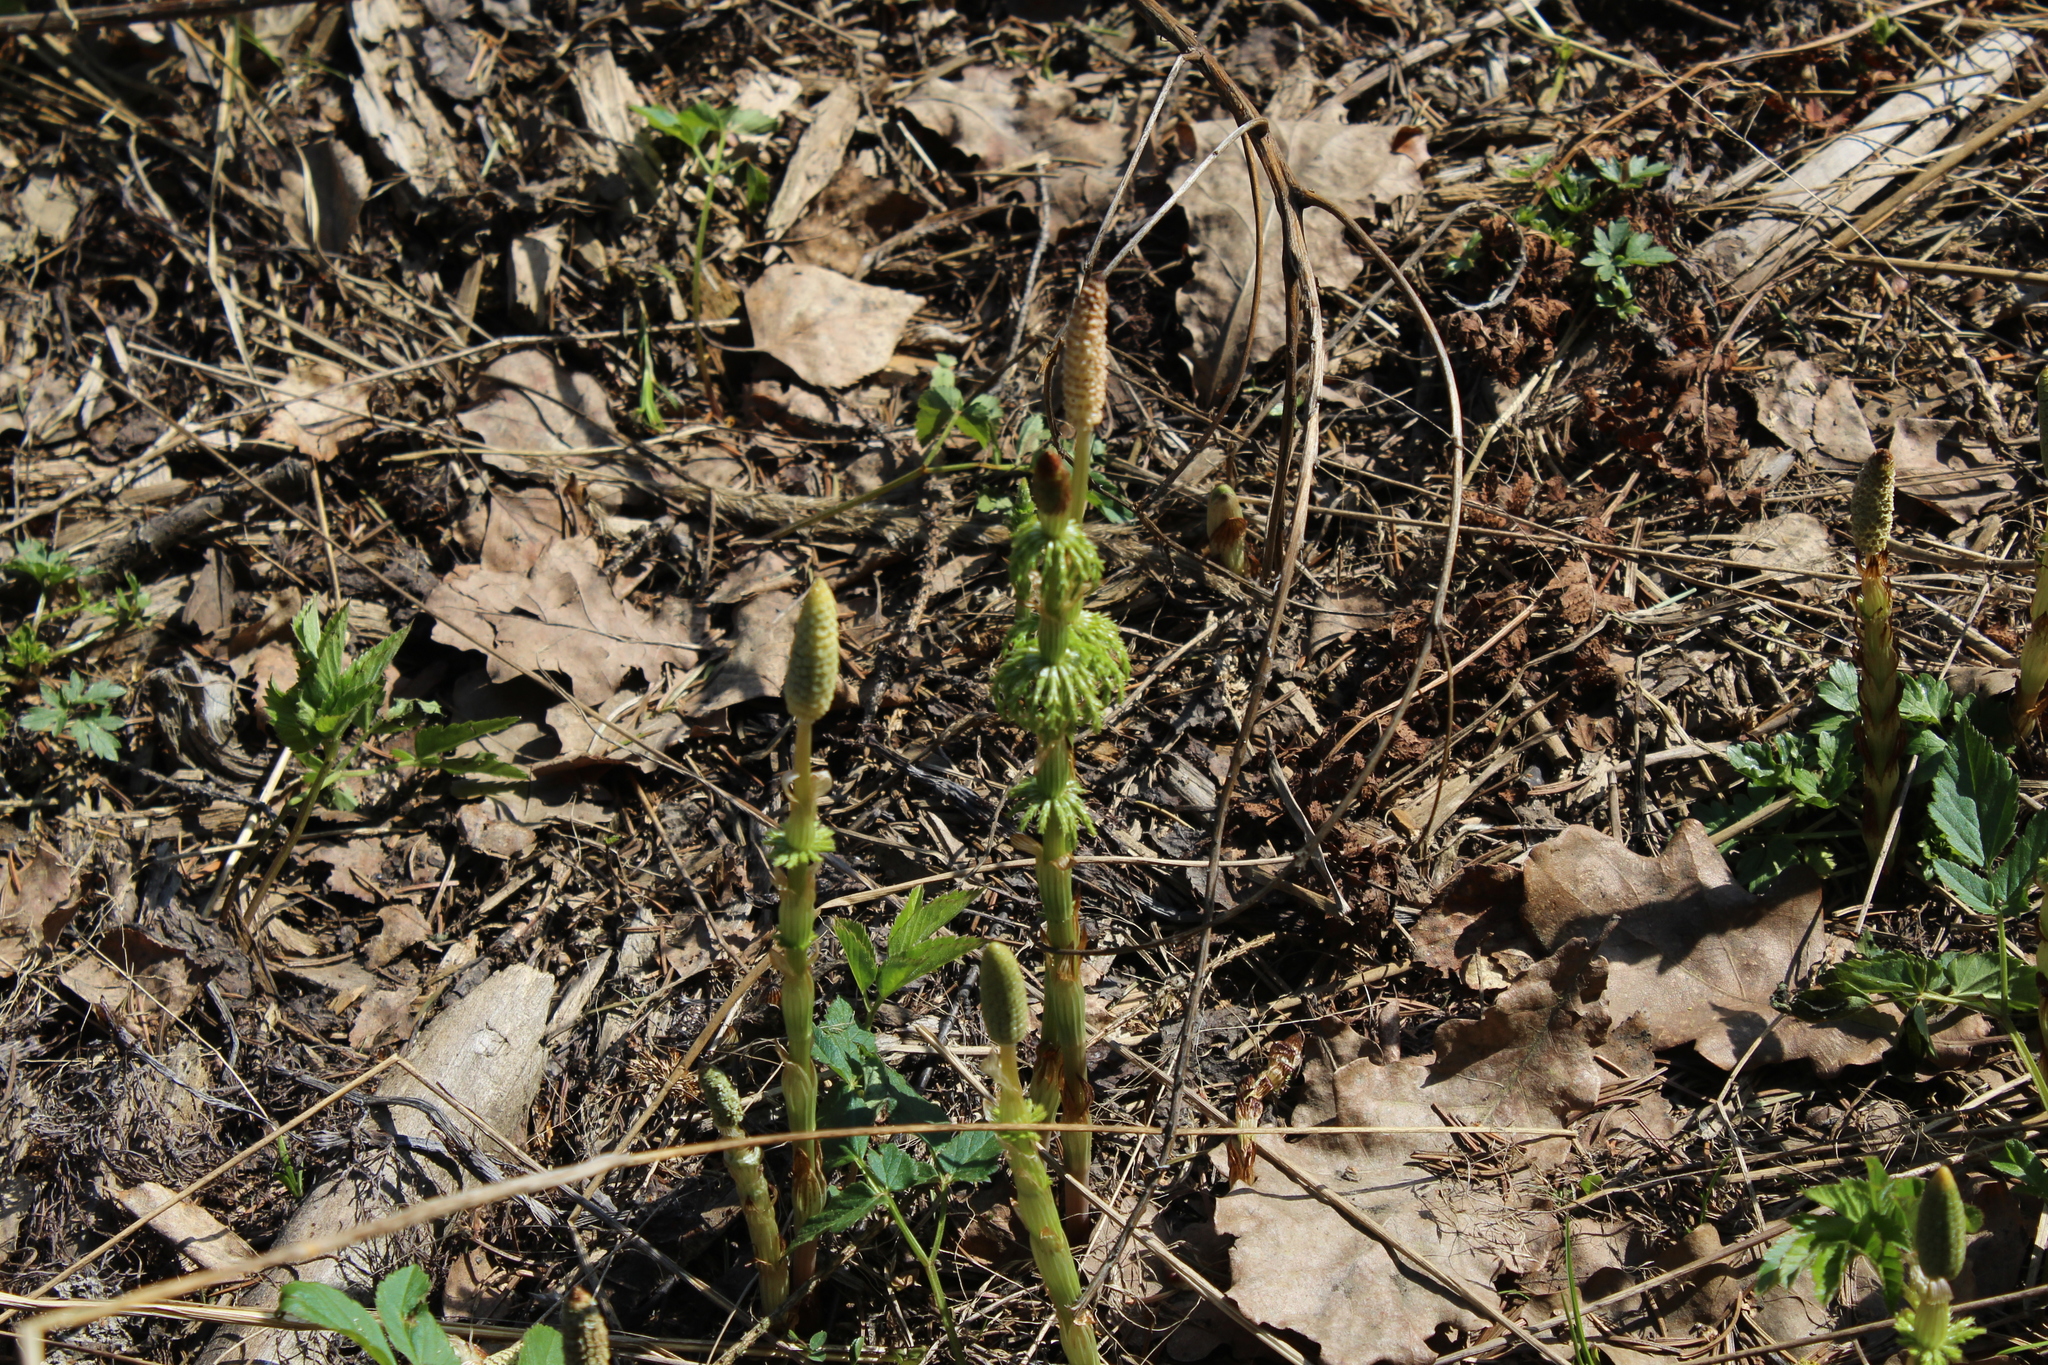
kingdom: Plantae
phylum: Tracheophyta
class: Polypodiopsida
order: Equisetales
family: Equisetaceae
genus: Equisetum
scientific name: Equisetum sylvaticum
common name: Wood horsetail
